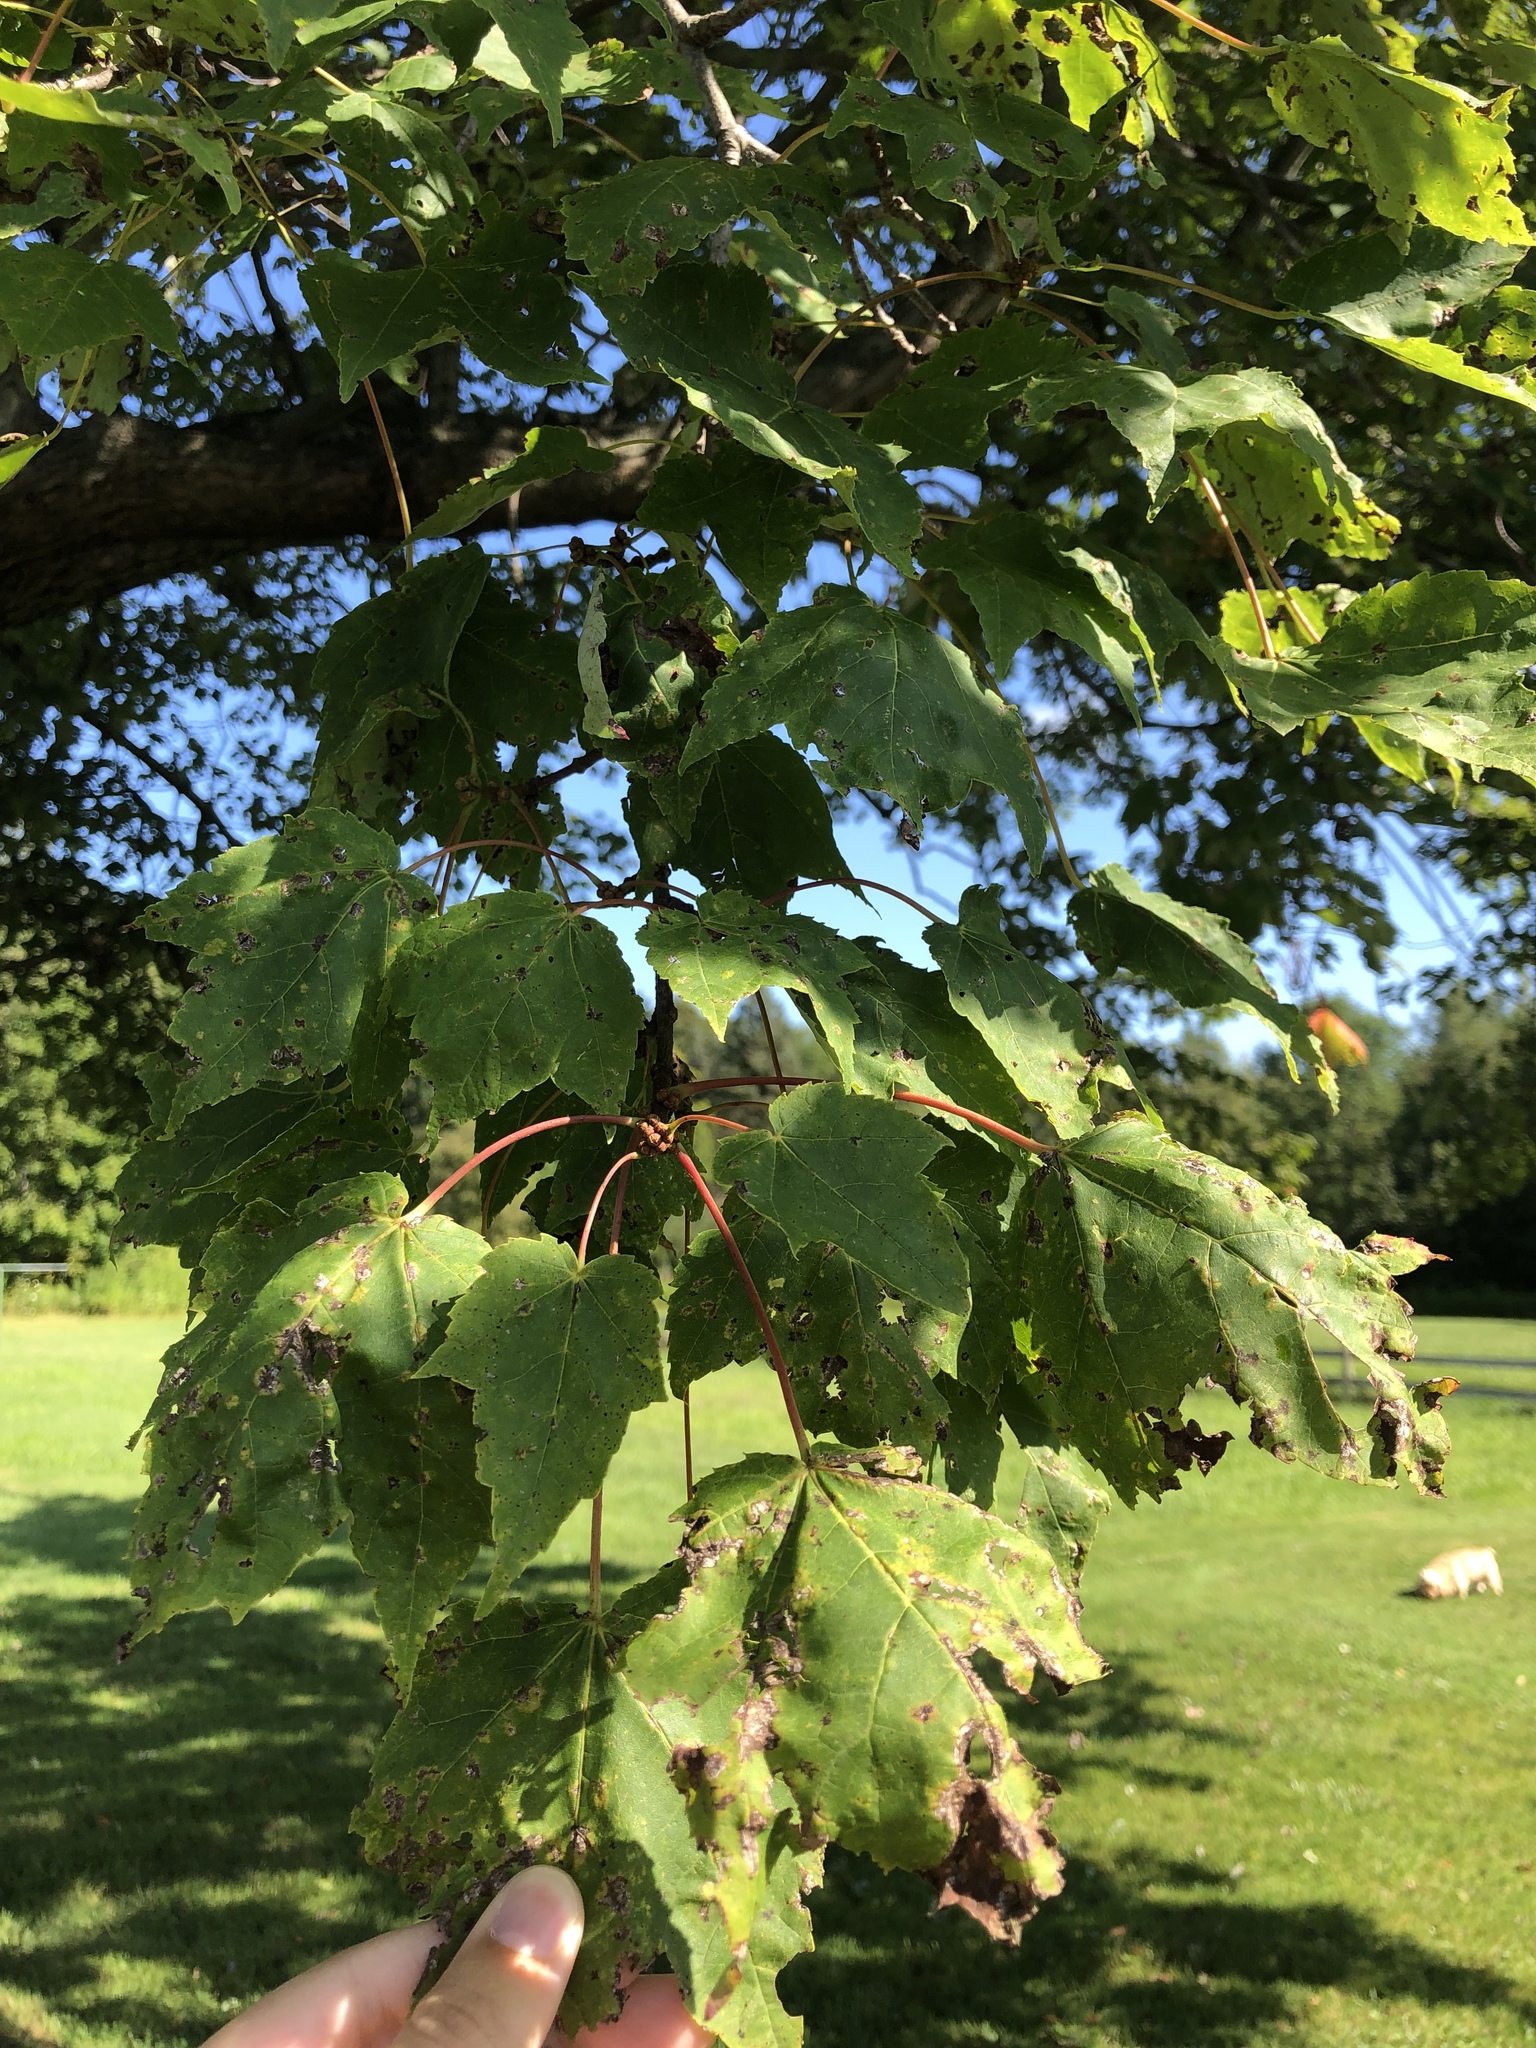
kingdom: Plantae
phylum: Tracheophyta
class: Magnoliopsida
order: Sapindales
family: Sapindaceae
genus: Acer
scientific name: Acer rubrum
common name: Red maple
